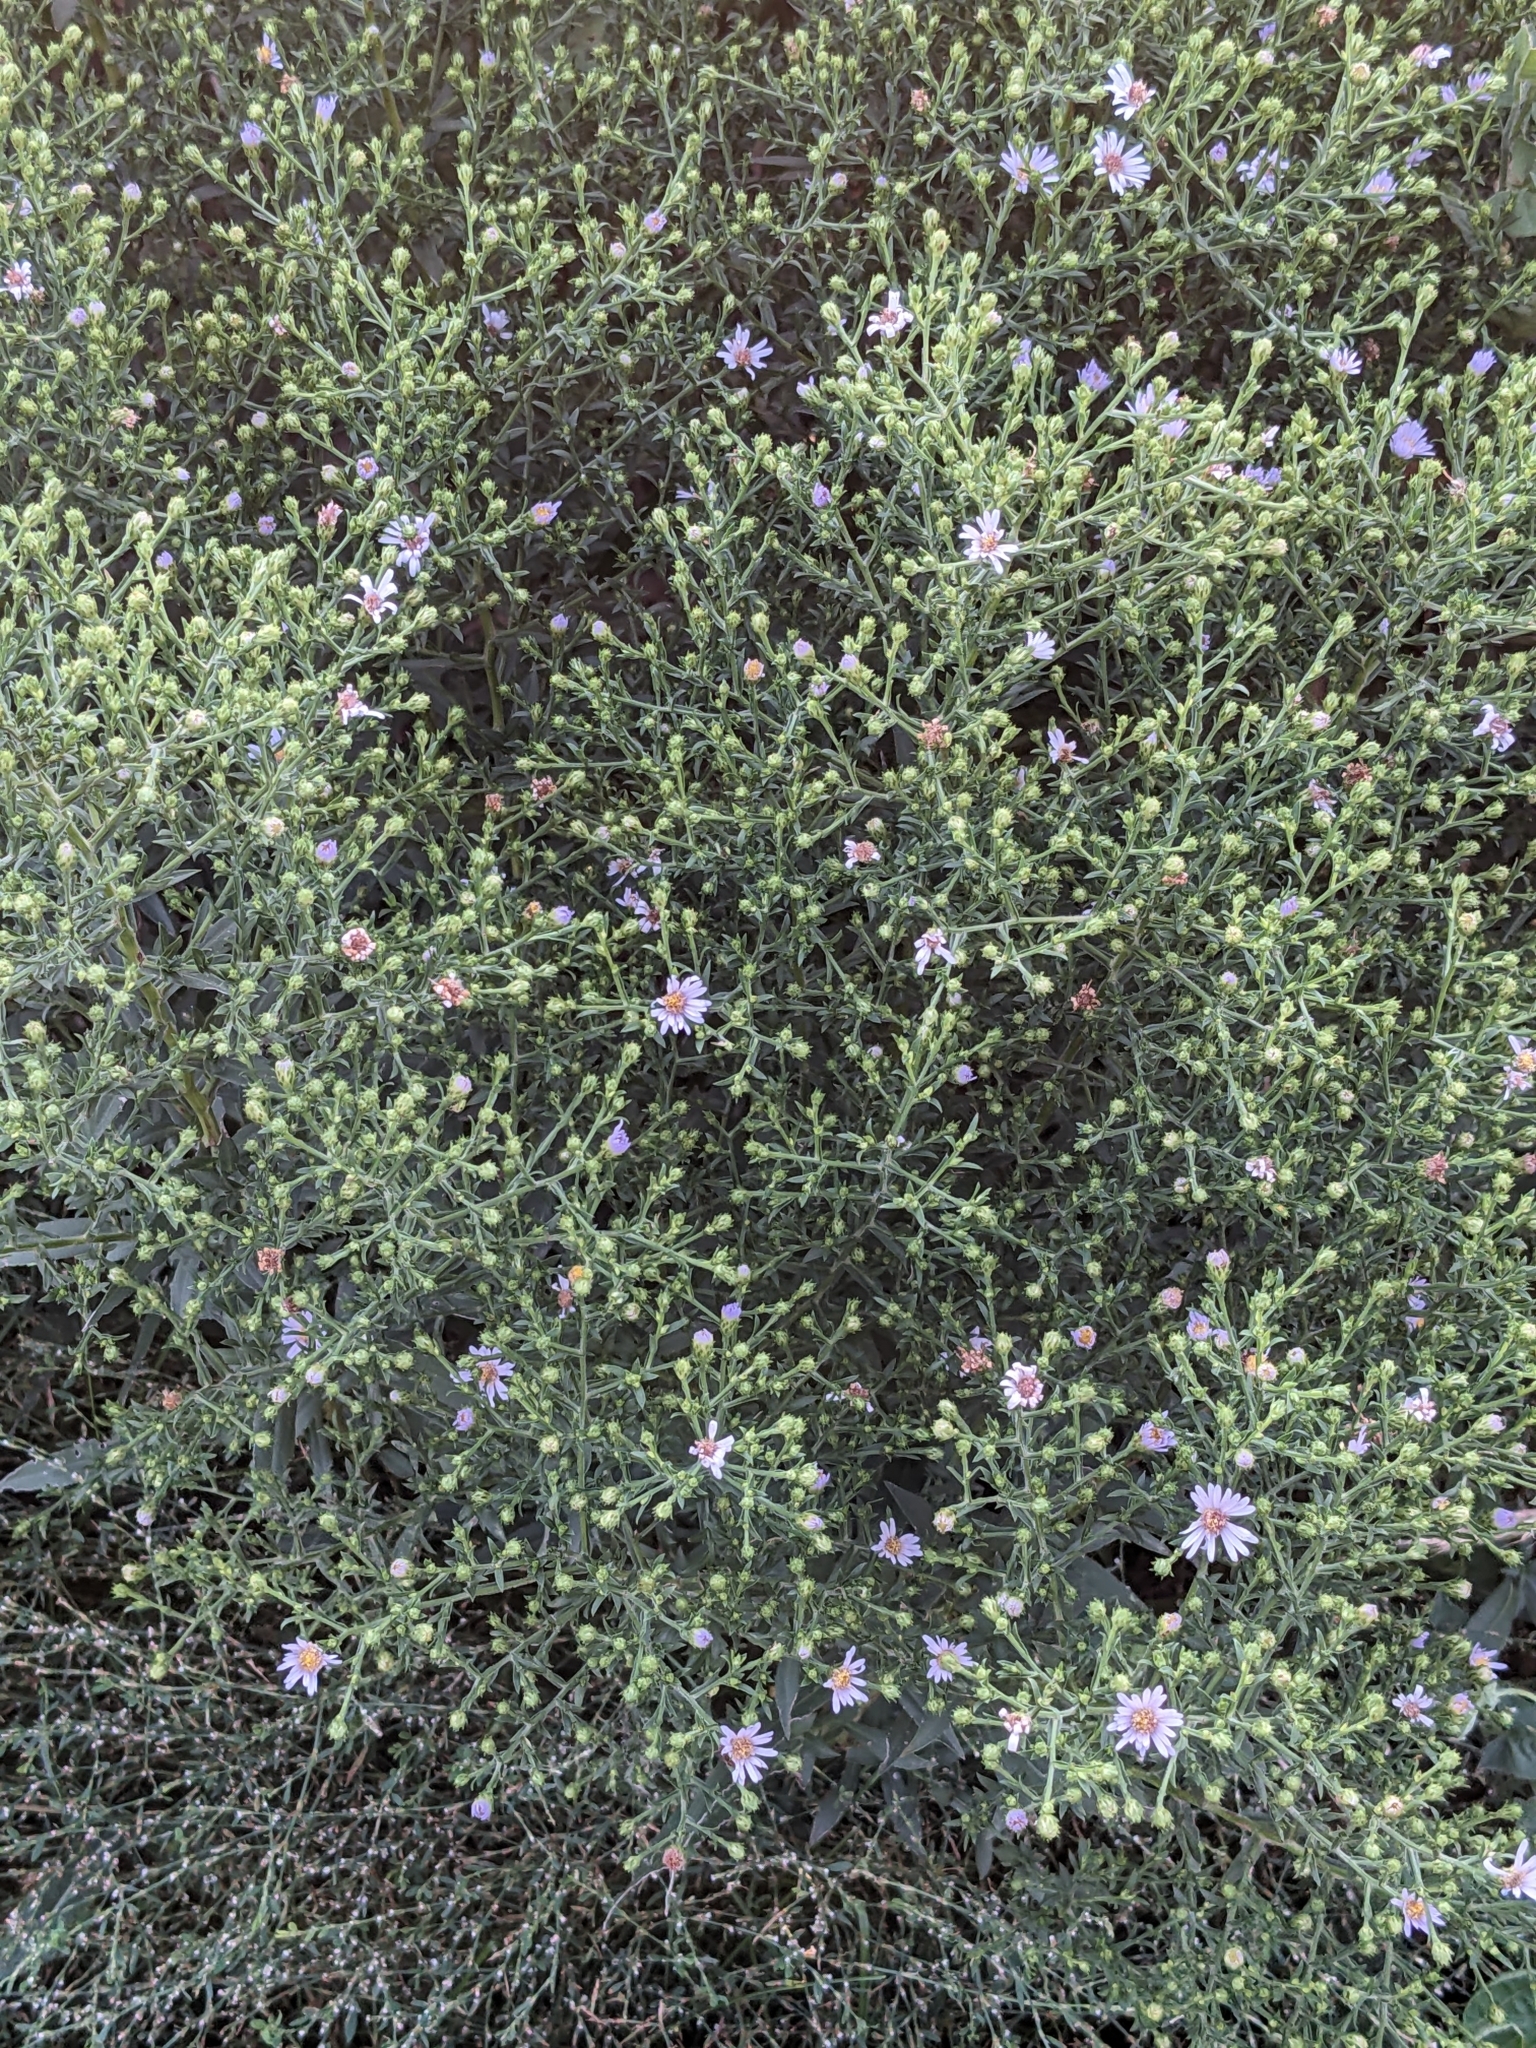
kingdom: Plantae
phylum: Tracheophyta
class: Magnoliopsida
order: Asterales
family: Asteraceae
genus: Symphyotrichum
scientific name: Symphyotrichum laeve
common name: Glaucous aster
